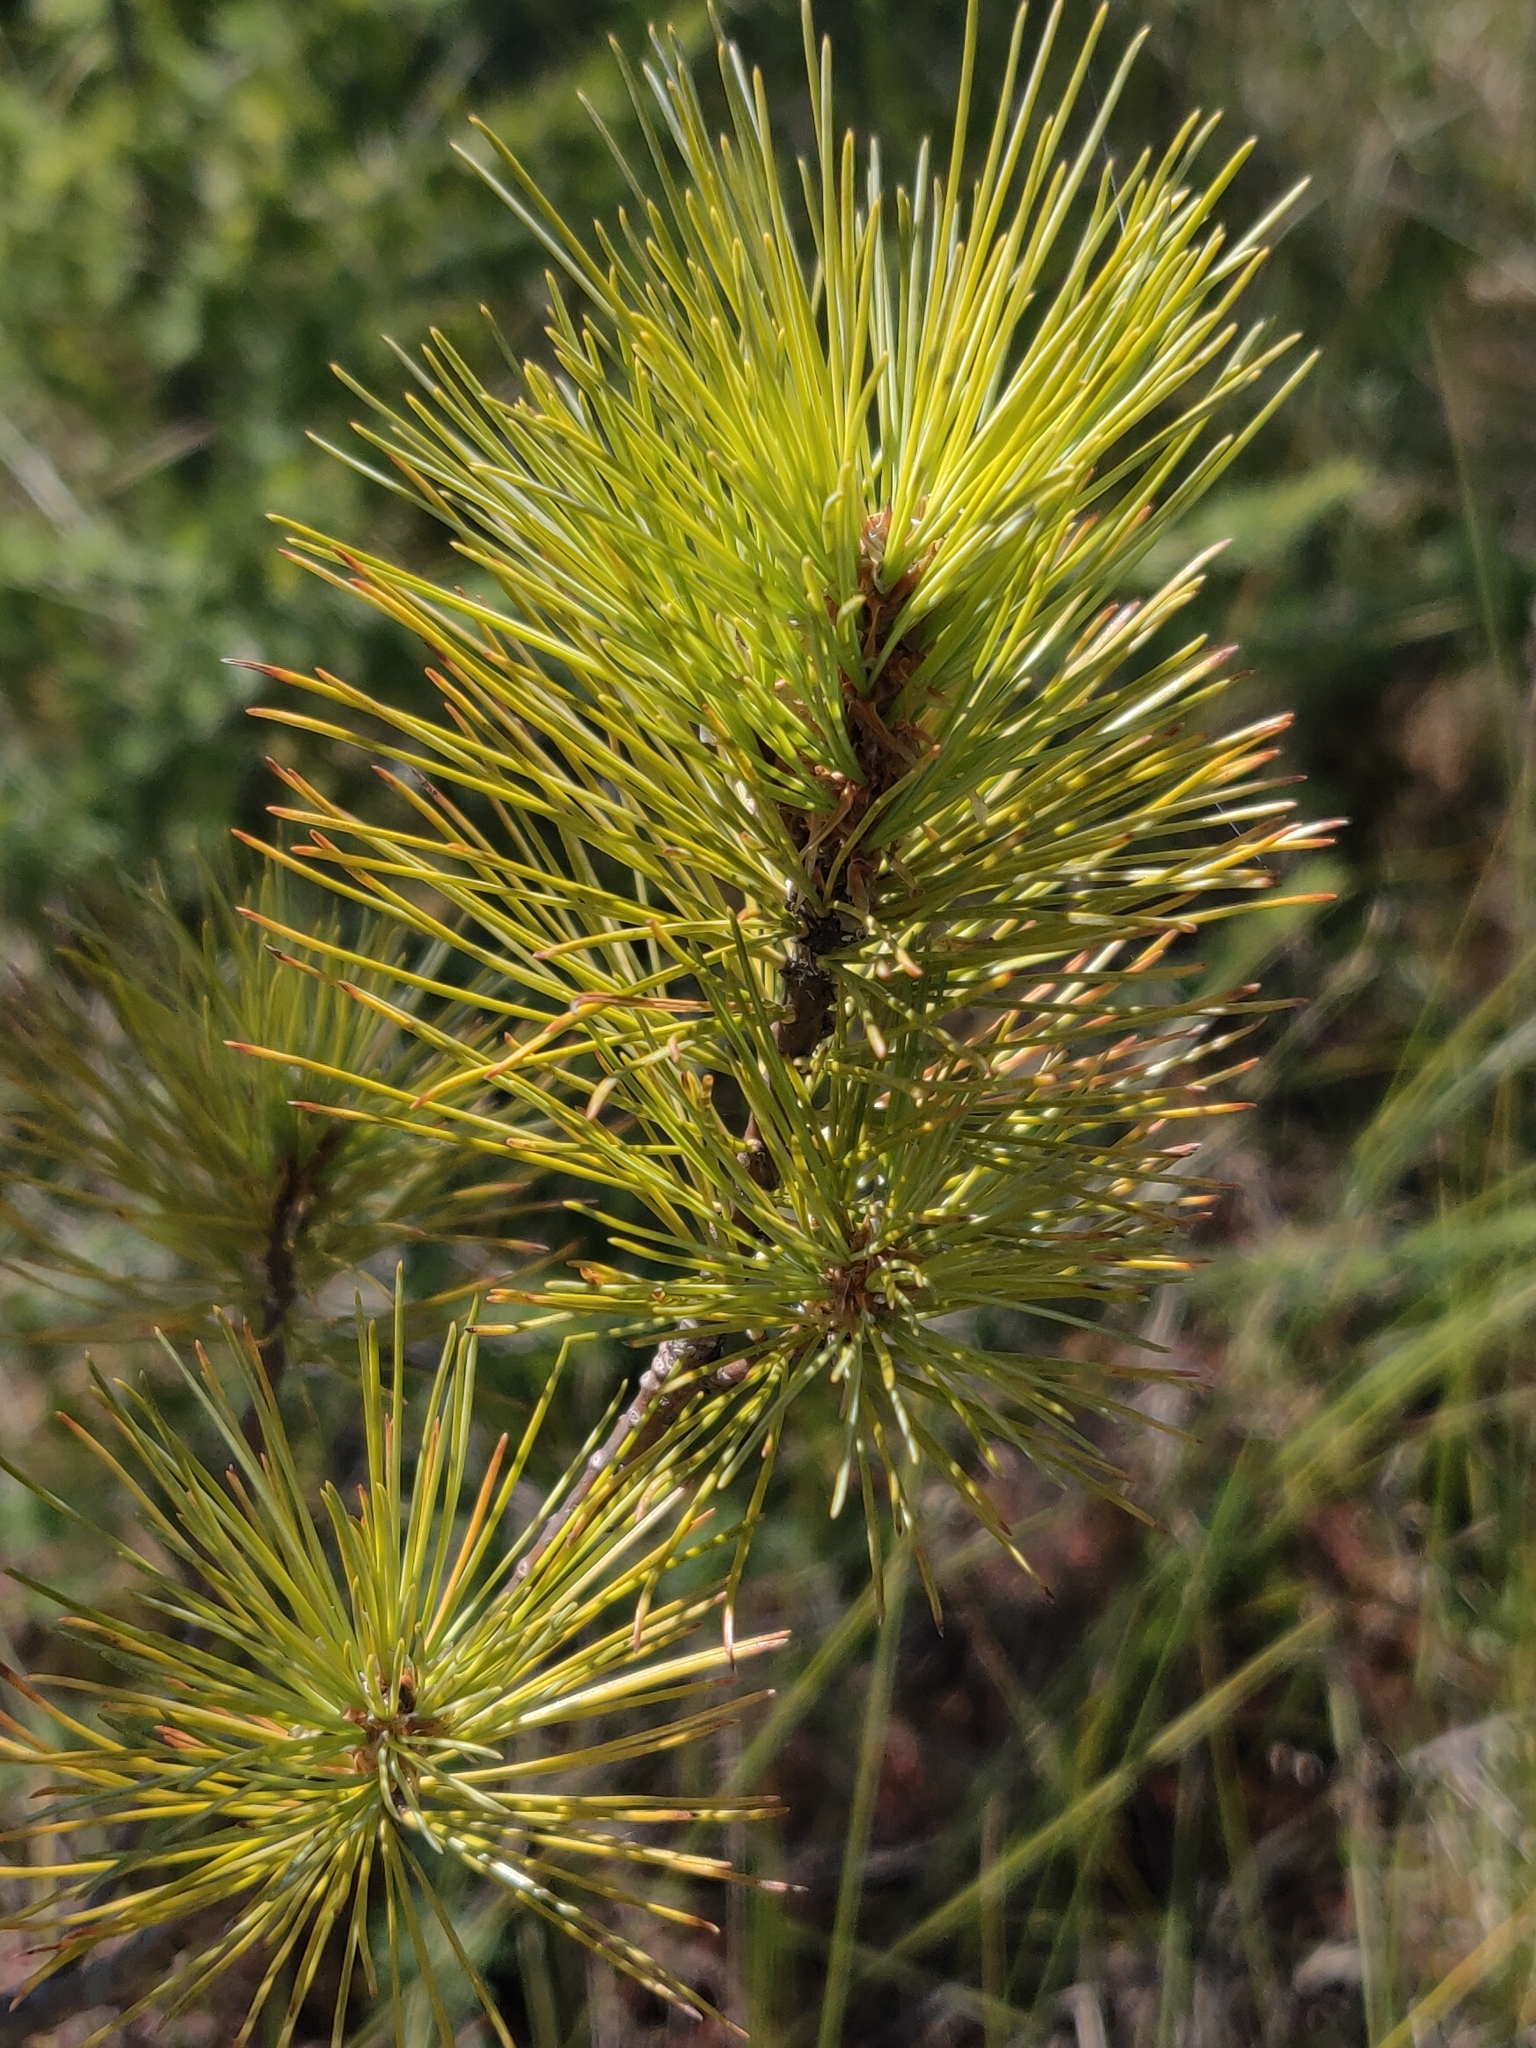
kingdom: Plantae
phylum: Tracheophyta
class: Pinopsida
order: Pinales
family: Pinaceae
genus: Pinus
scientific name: Pinus strobus
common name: Weymouth pine
